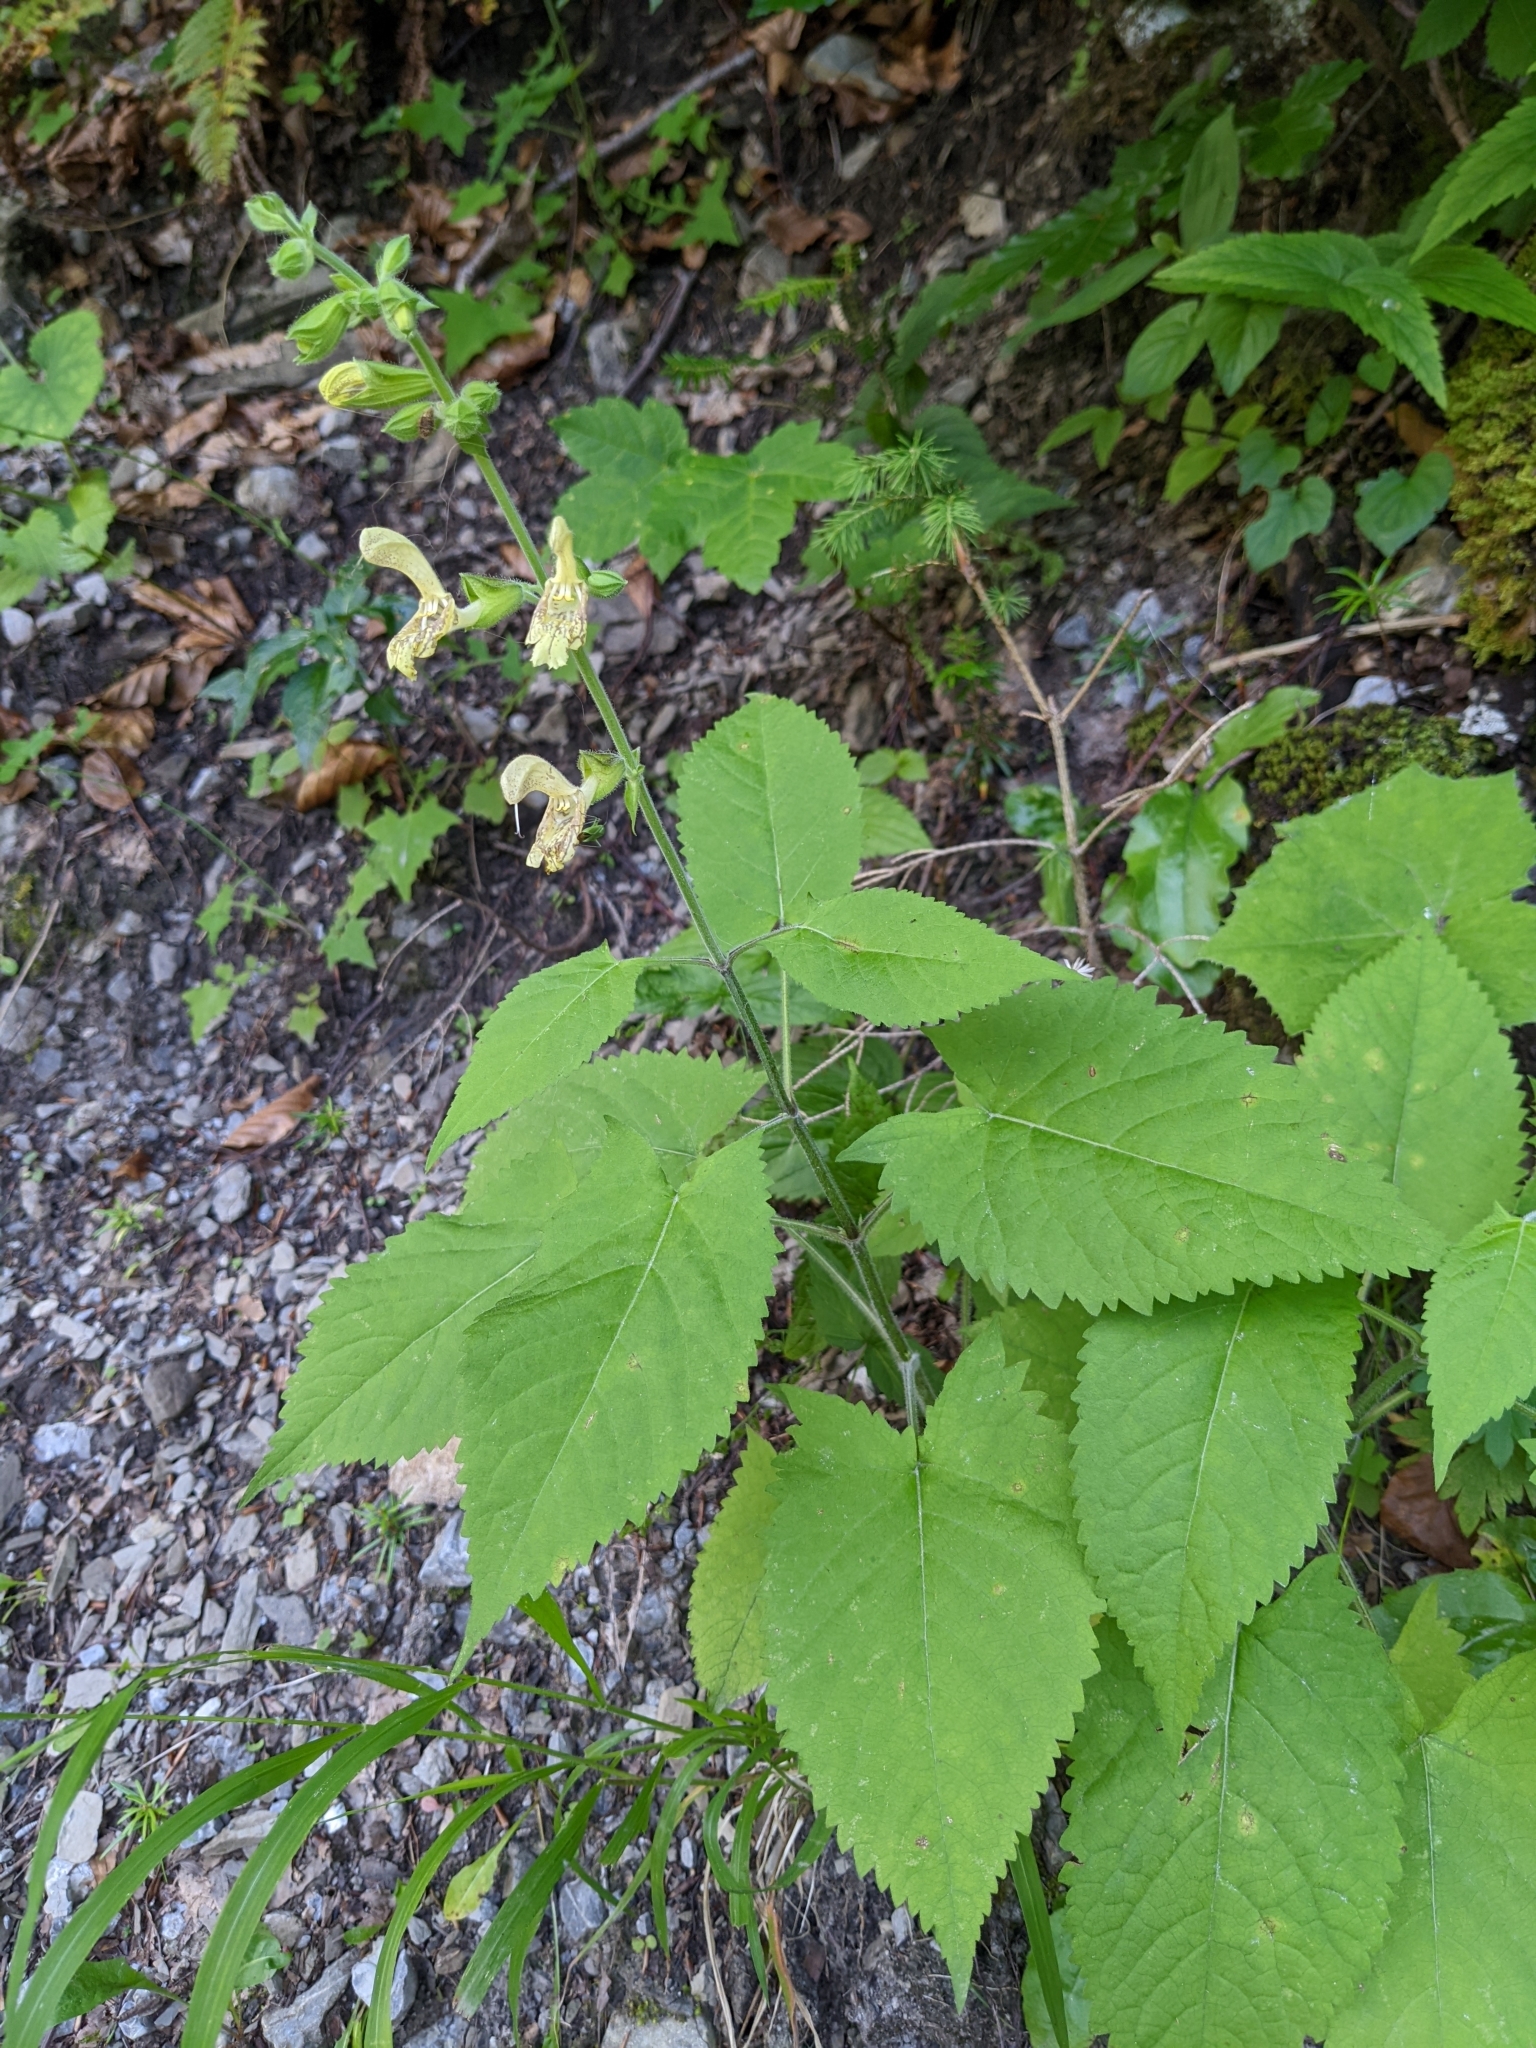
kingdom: Plantae
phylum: Tracheophyta
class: Magnoliopsida
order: Lamiales
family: Lamiaceae
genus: Salvia
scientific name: Salvia glutinosa
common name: Sticky clary
